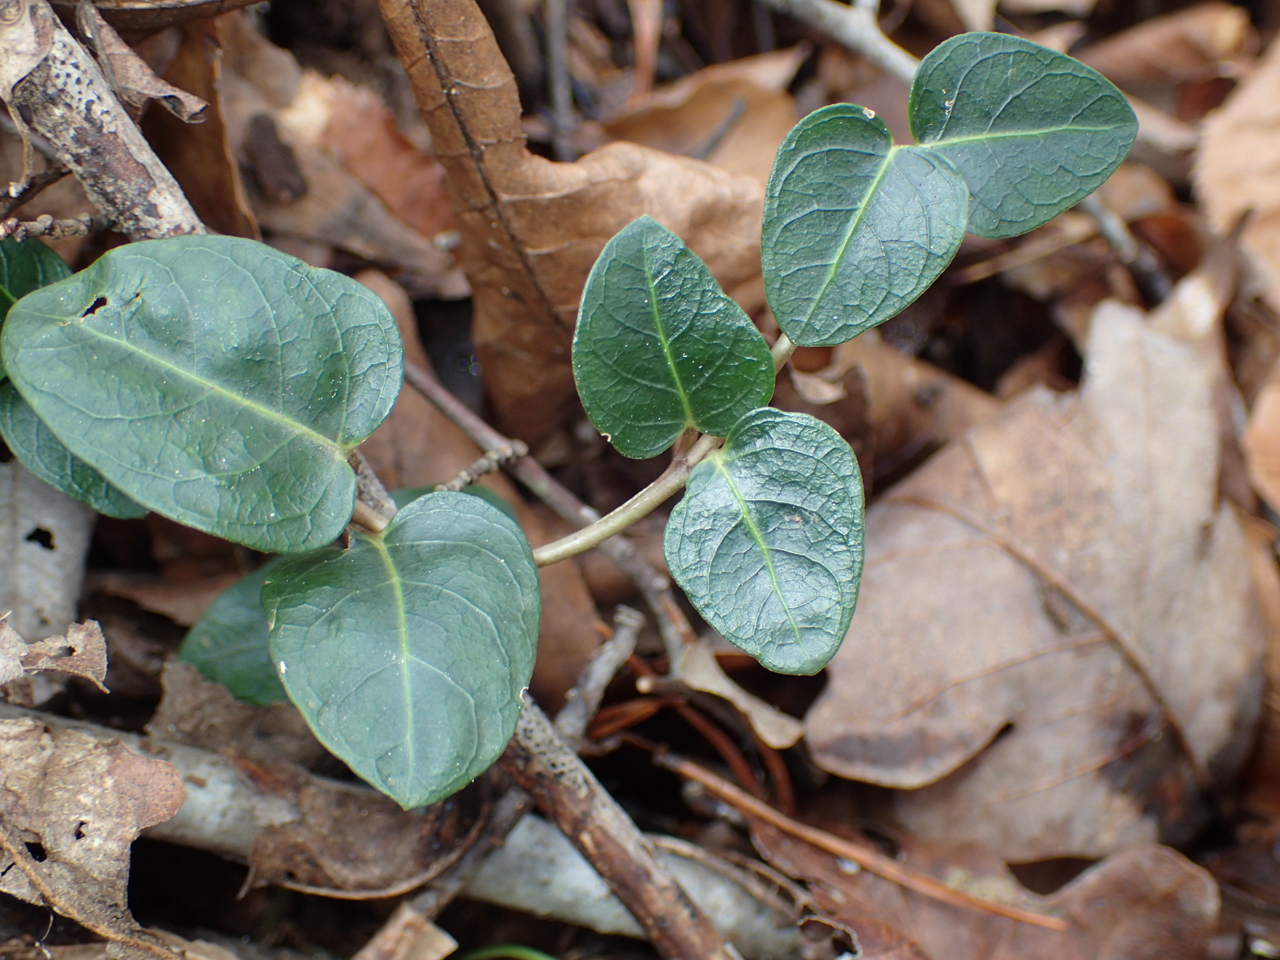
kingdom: Plantae
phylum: Tracheophyta
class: Magnoliopsida
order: Gentianales
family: Rubiaceae
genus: Mitchella
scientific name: Mitchella repens
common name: Partridge-berry
